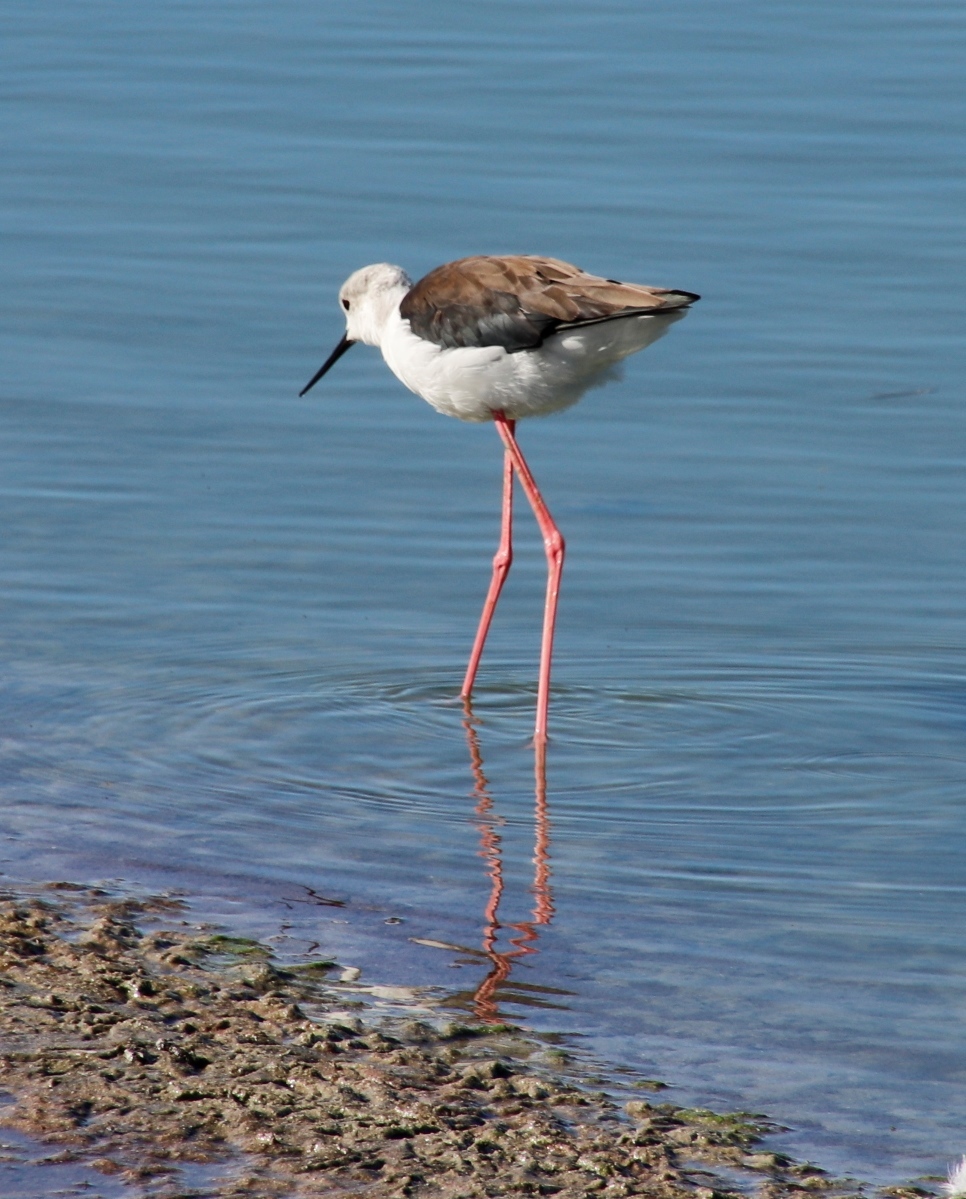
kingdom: Animalia
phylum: Chordata
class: Aves
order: Charadriiformes
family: Recurvirostridae
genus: Himantopus
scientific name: Himantopus himantopus
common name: Black-winged stilt
